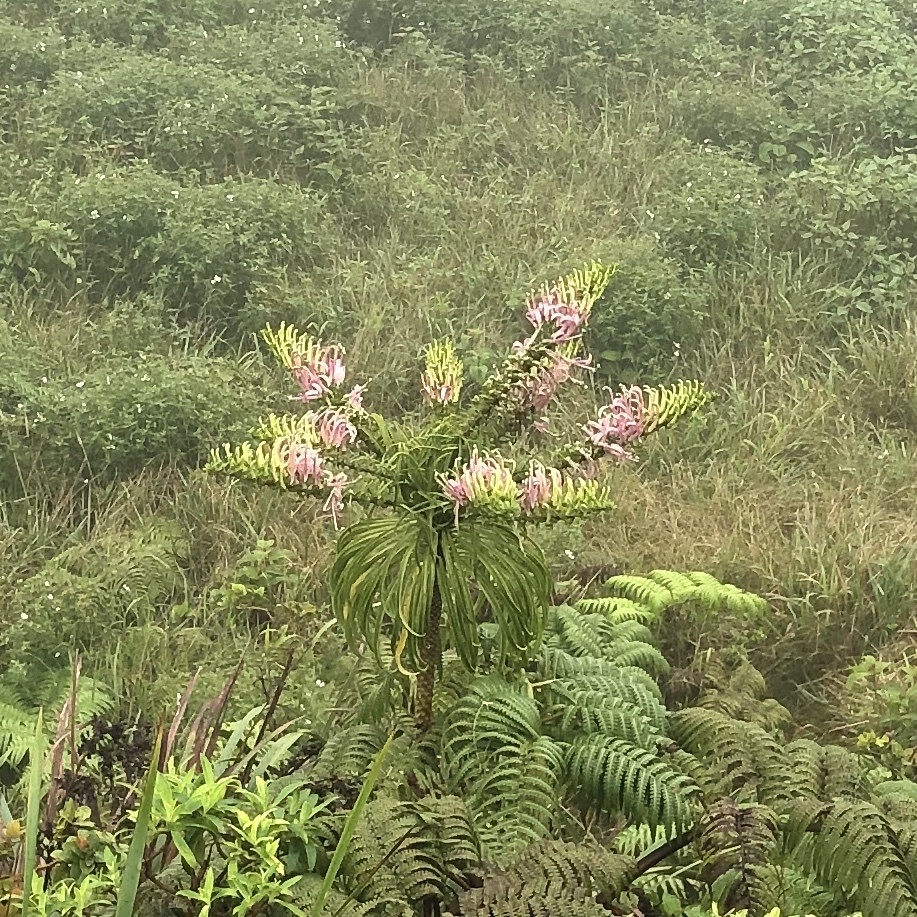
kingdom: Plantae
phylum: Tracheophyta
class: Magnoliopsida
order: Asterales
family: Campanulaceae
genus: Trematolobelia
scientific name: Trematolobelia macrostachys
